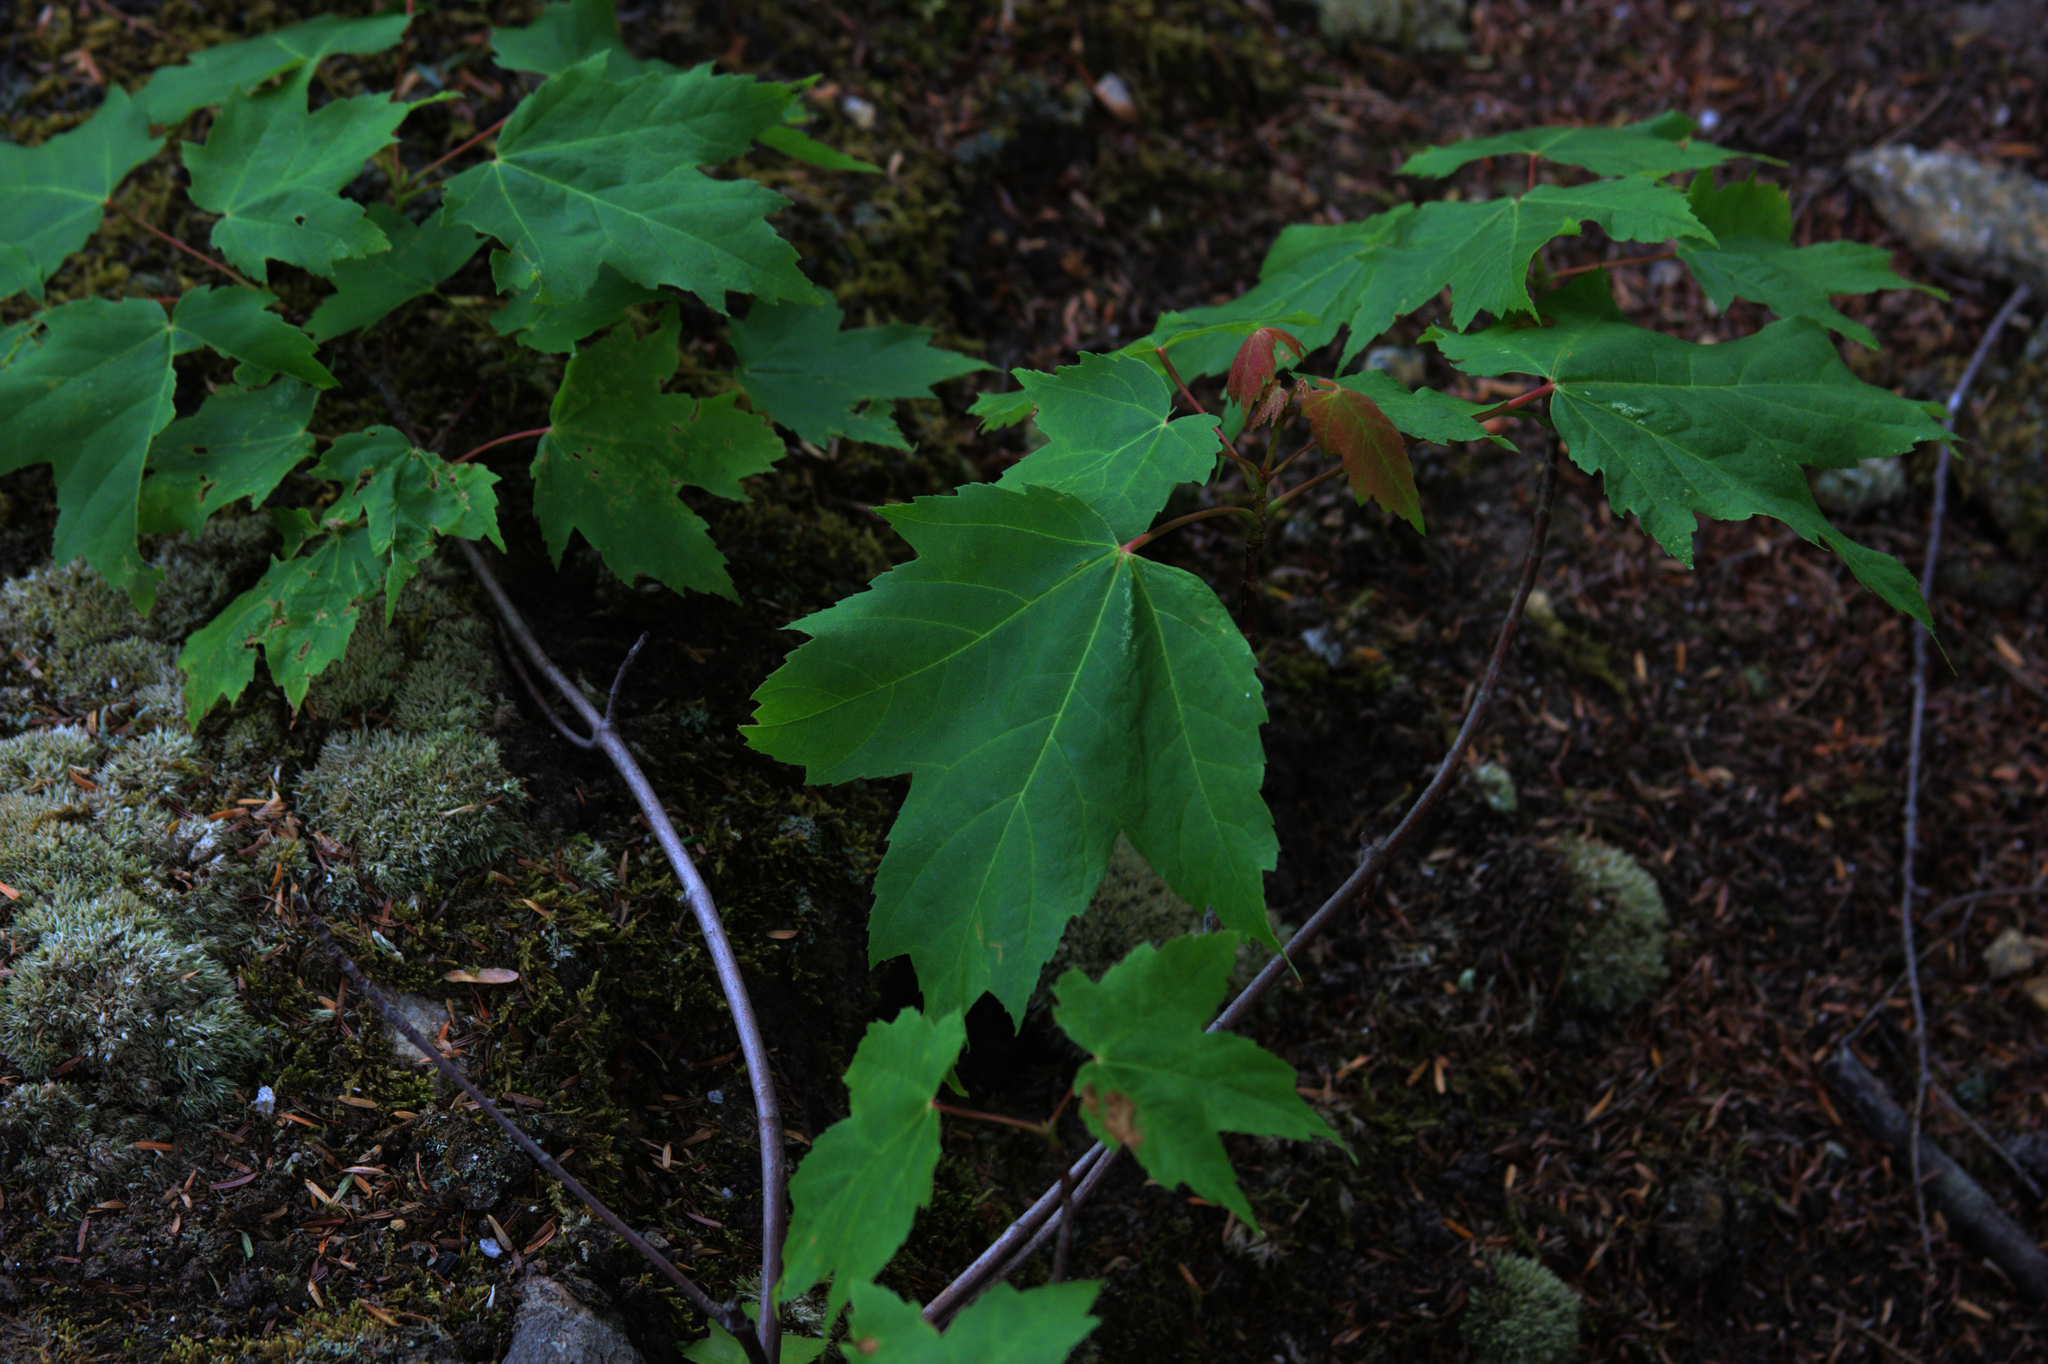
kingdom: Plantae
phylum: Tracheophyta
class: Magnoliopsida
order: Sapindales
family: Sapindaceae
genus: Acer
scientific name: Acer rubrum
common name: Red maple
